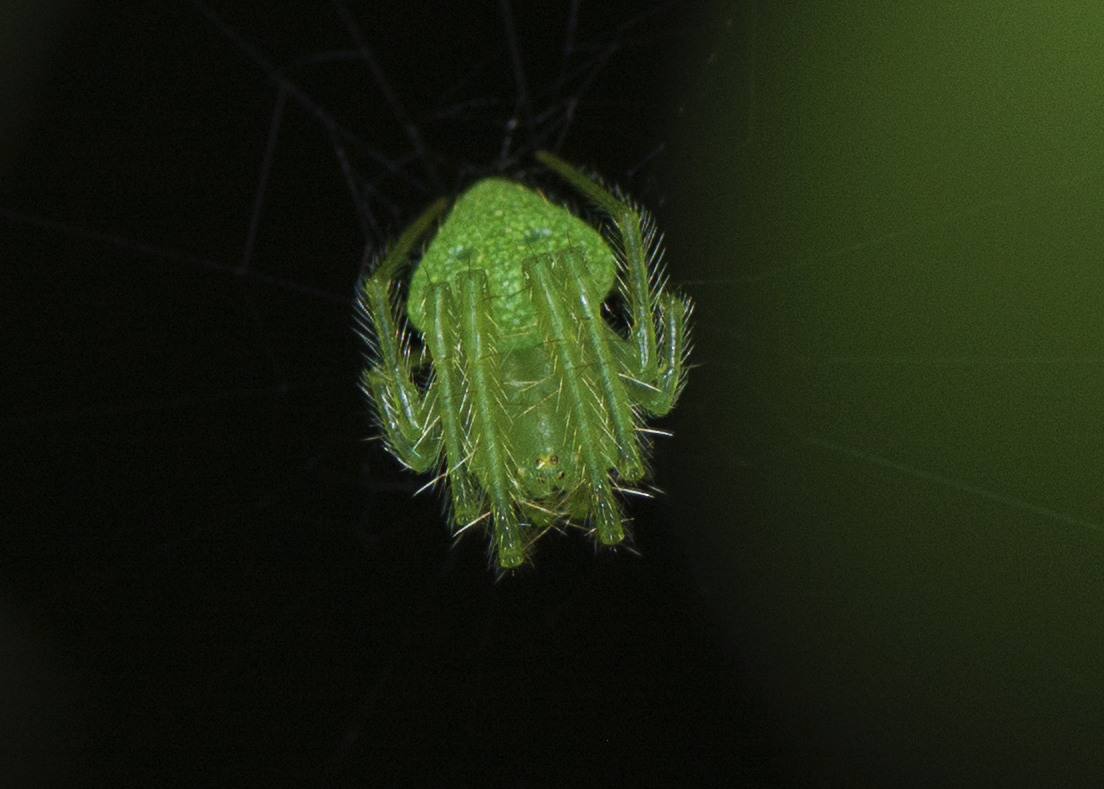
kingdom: Animalia
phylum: Arthropoda
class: Arachnida
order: Araneae
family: Araneidae
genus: Araneus
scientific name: Araneus circulissparsus
